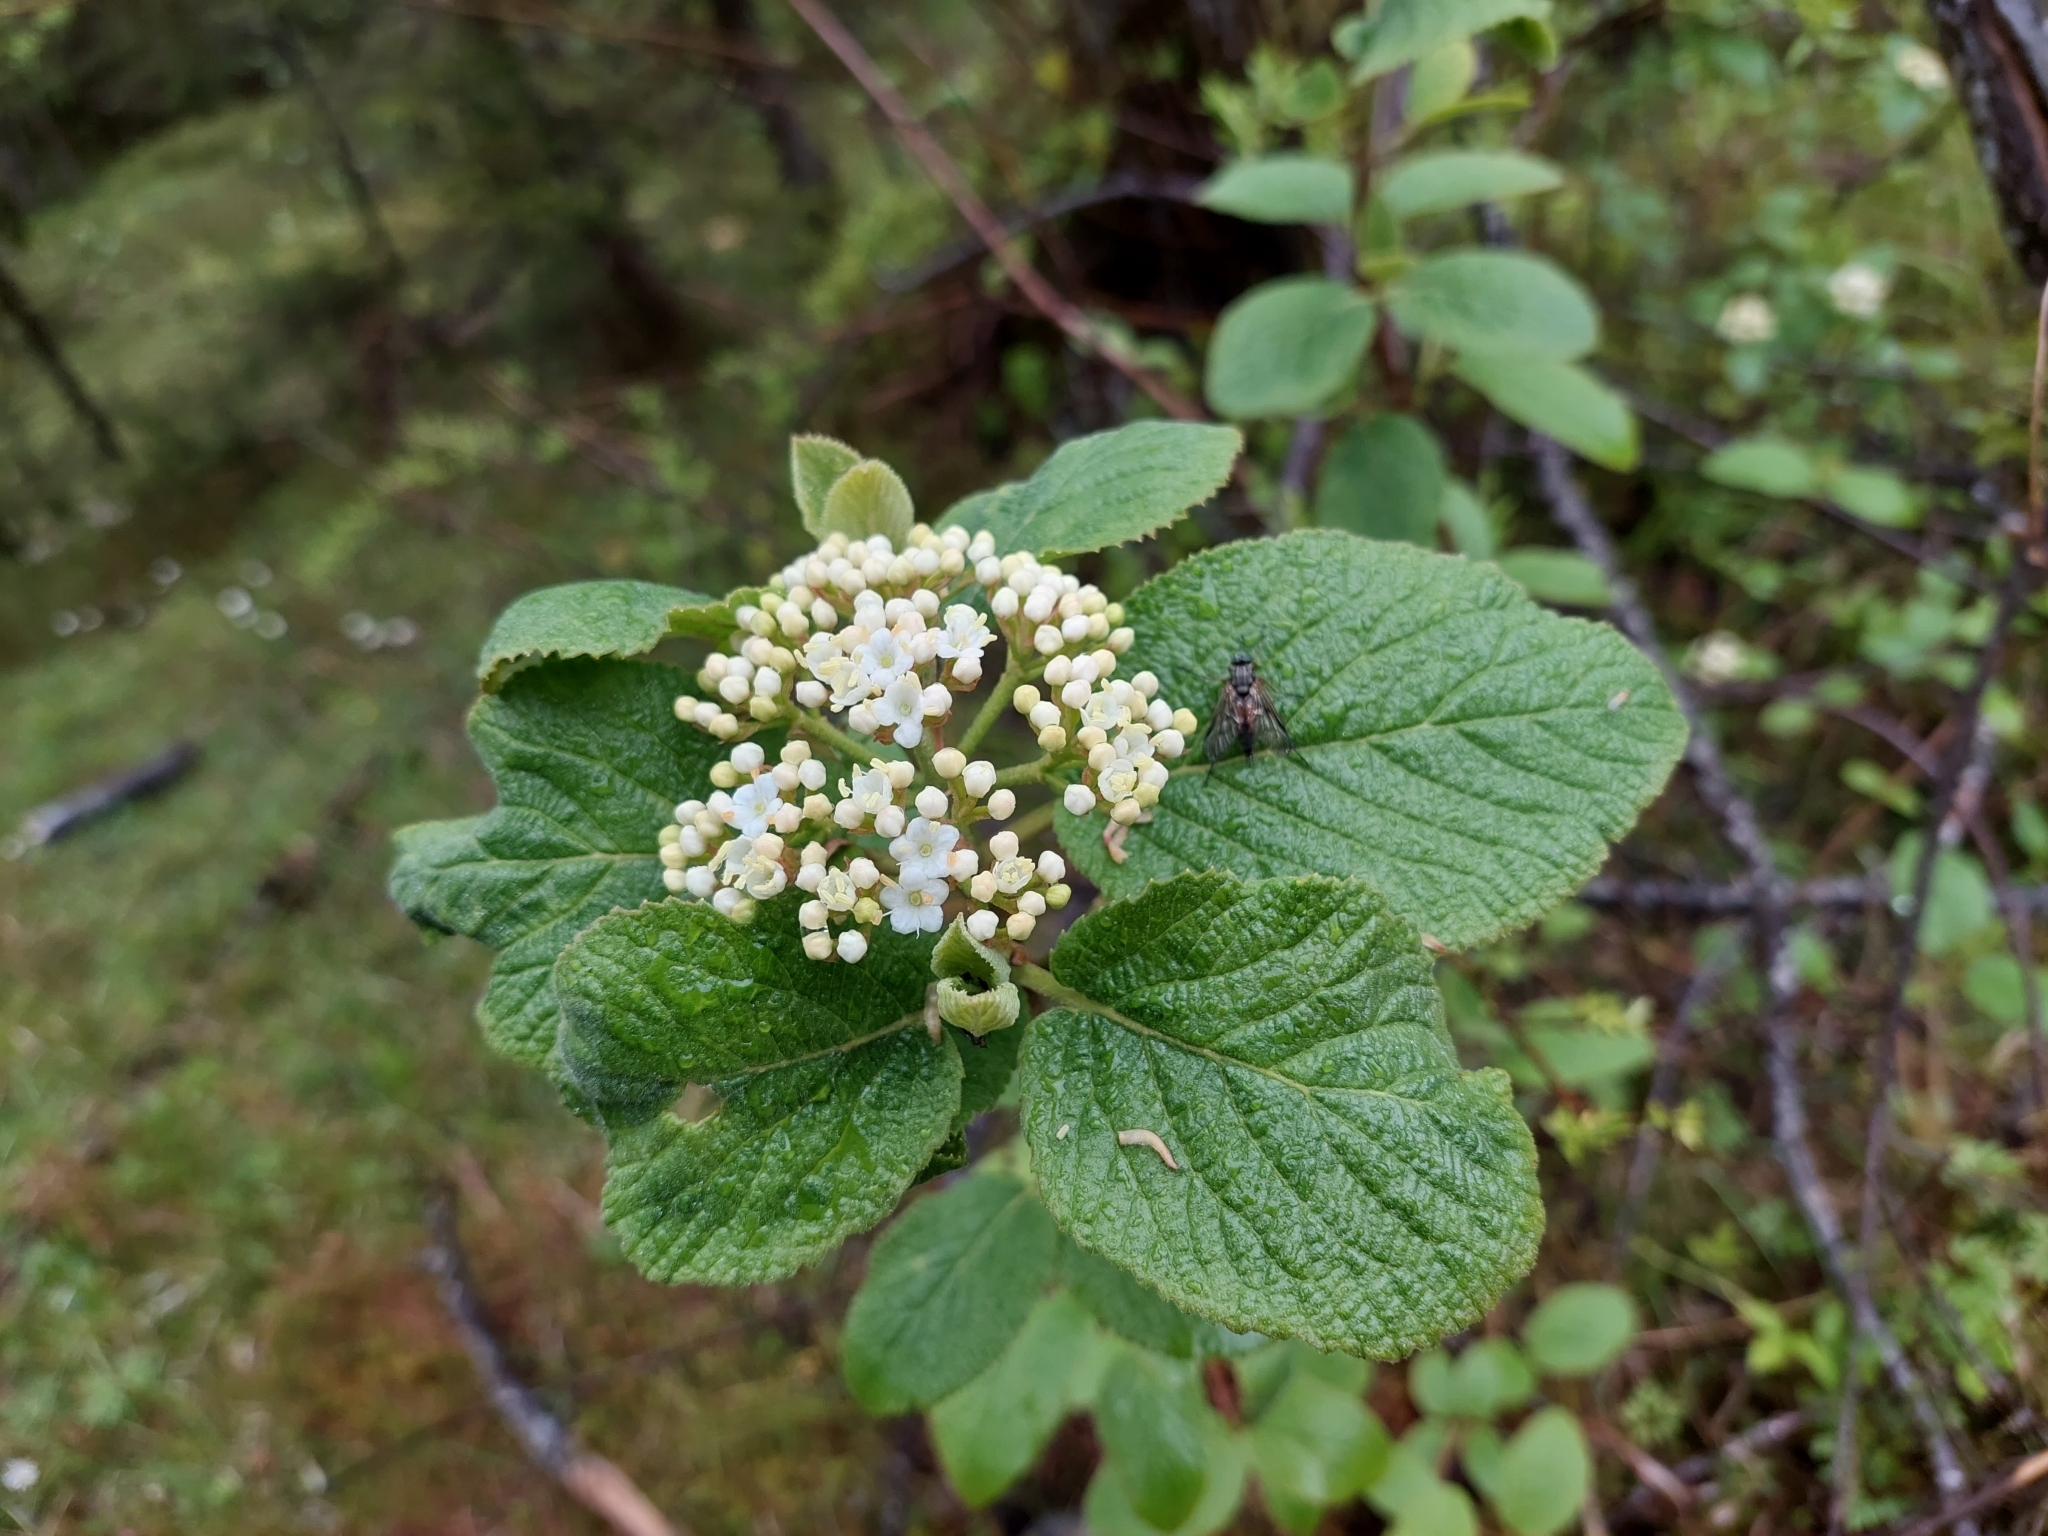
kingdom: Plantae
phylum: Tracheophyta
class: Magnoliopsida
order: Dipsacales
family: Viburnaceae
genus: Viburnum
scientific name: Viburnum lantana
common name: Wayfaring tree
